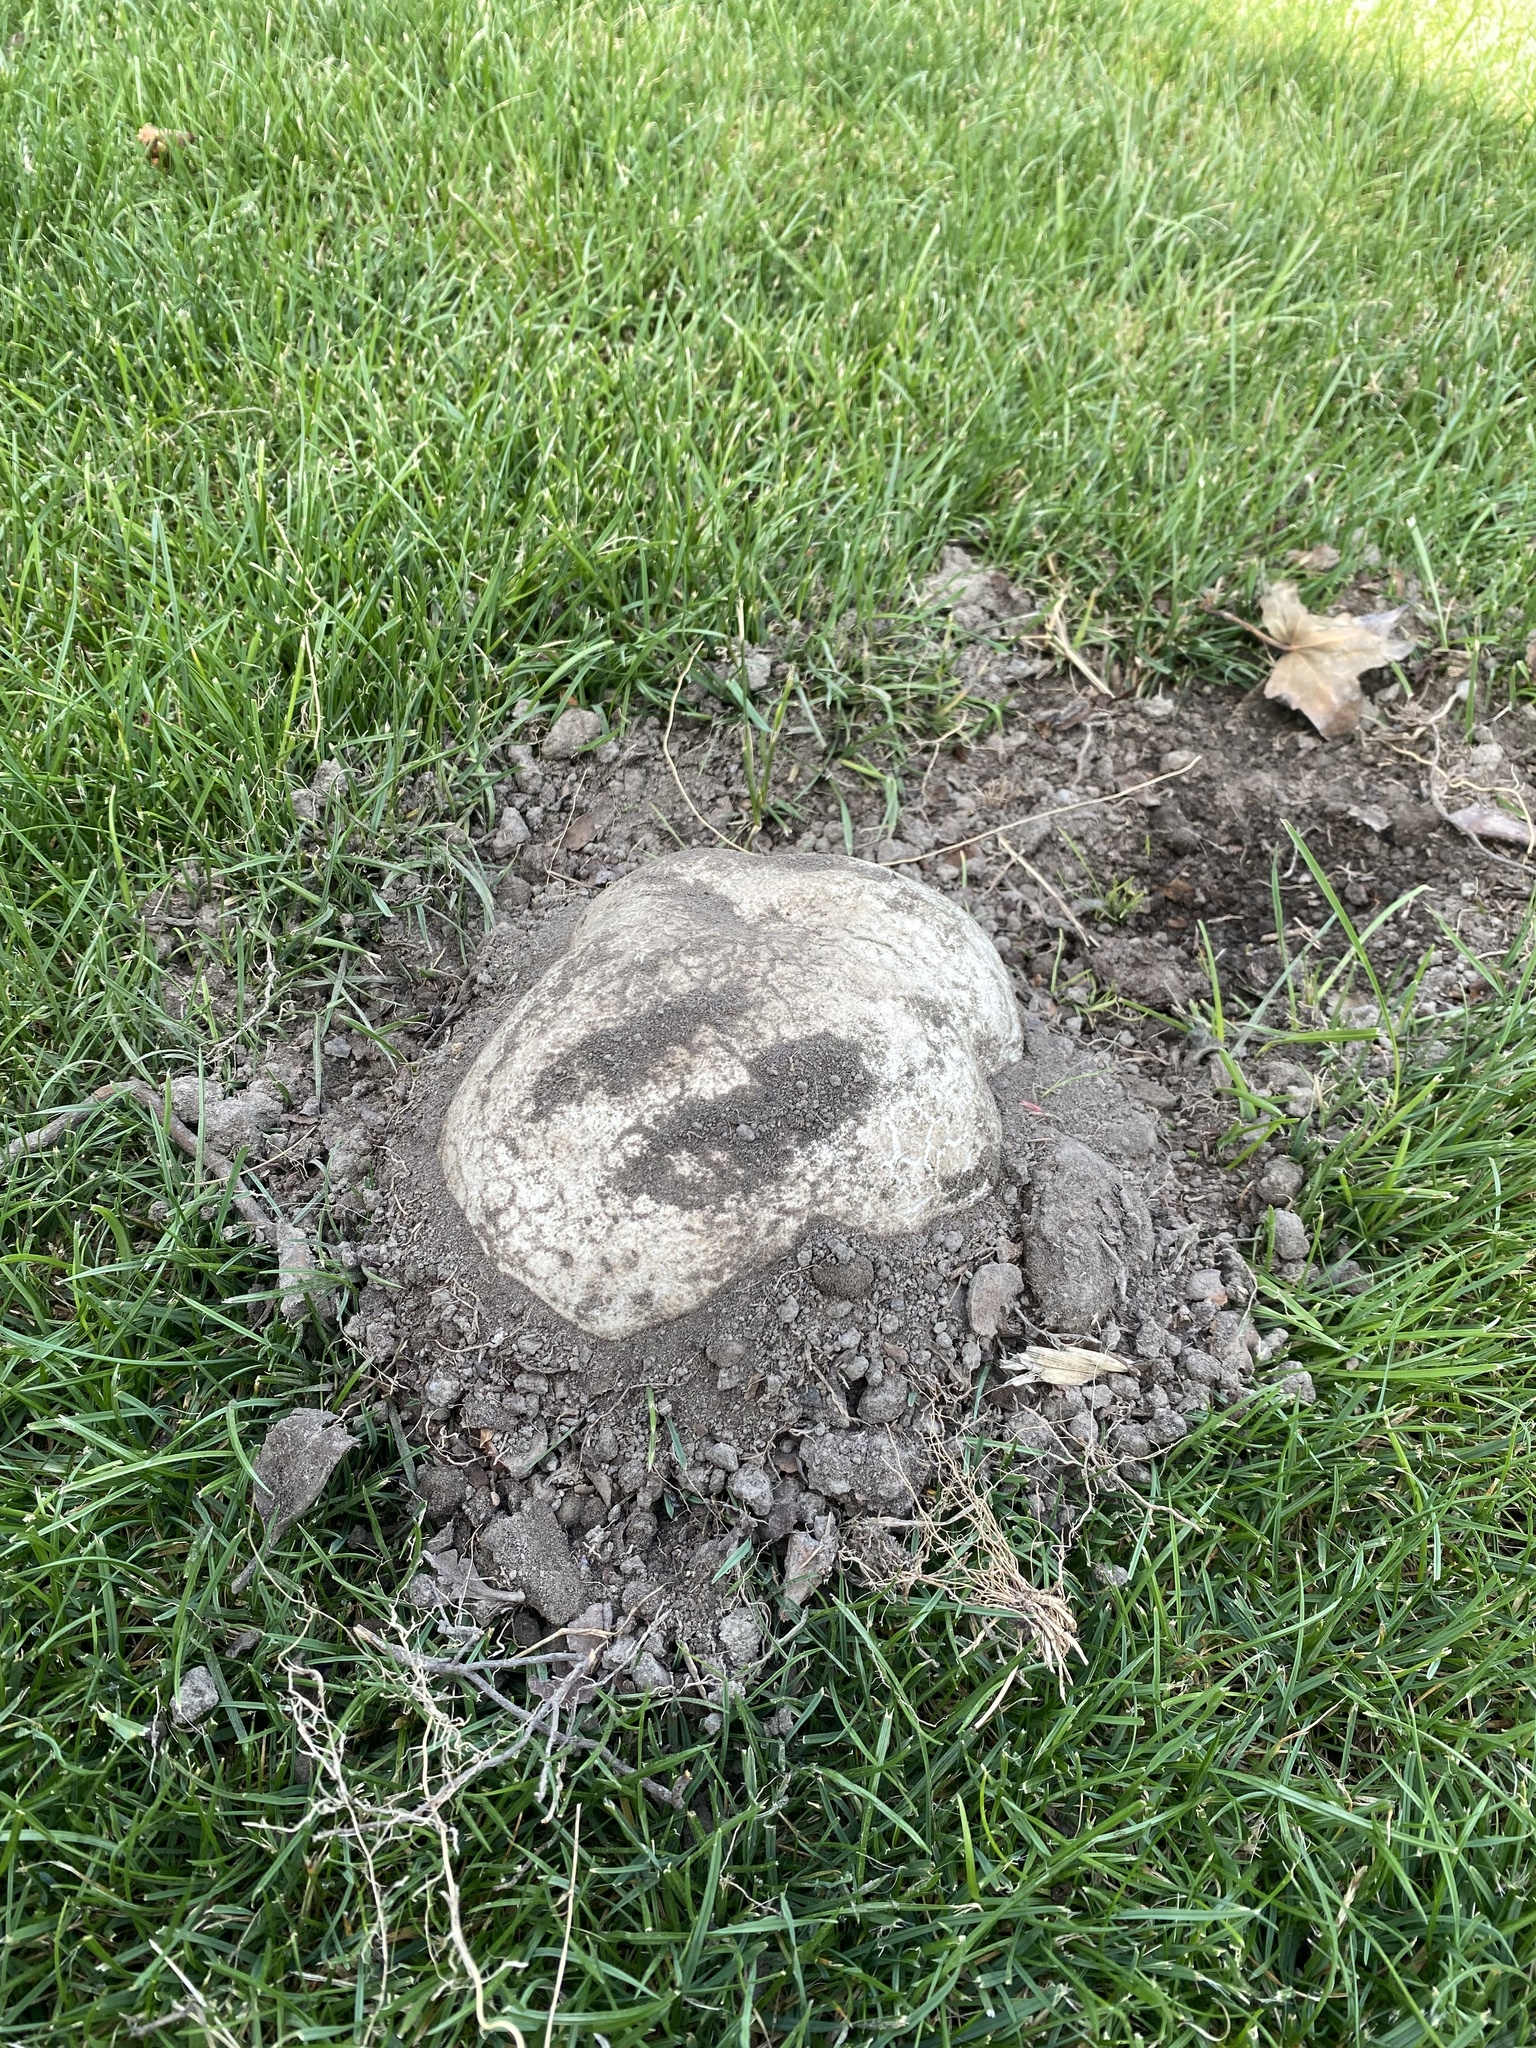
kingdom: Fungi
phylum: Basidiomycota
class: Agaricomycetes
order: Agaricales
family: Lycoperdaceae
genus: Calvatia
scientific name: Calvatia gigantea
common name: Giant puffball
